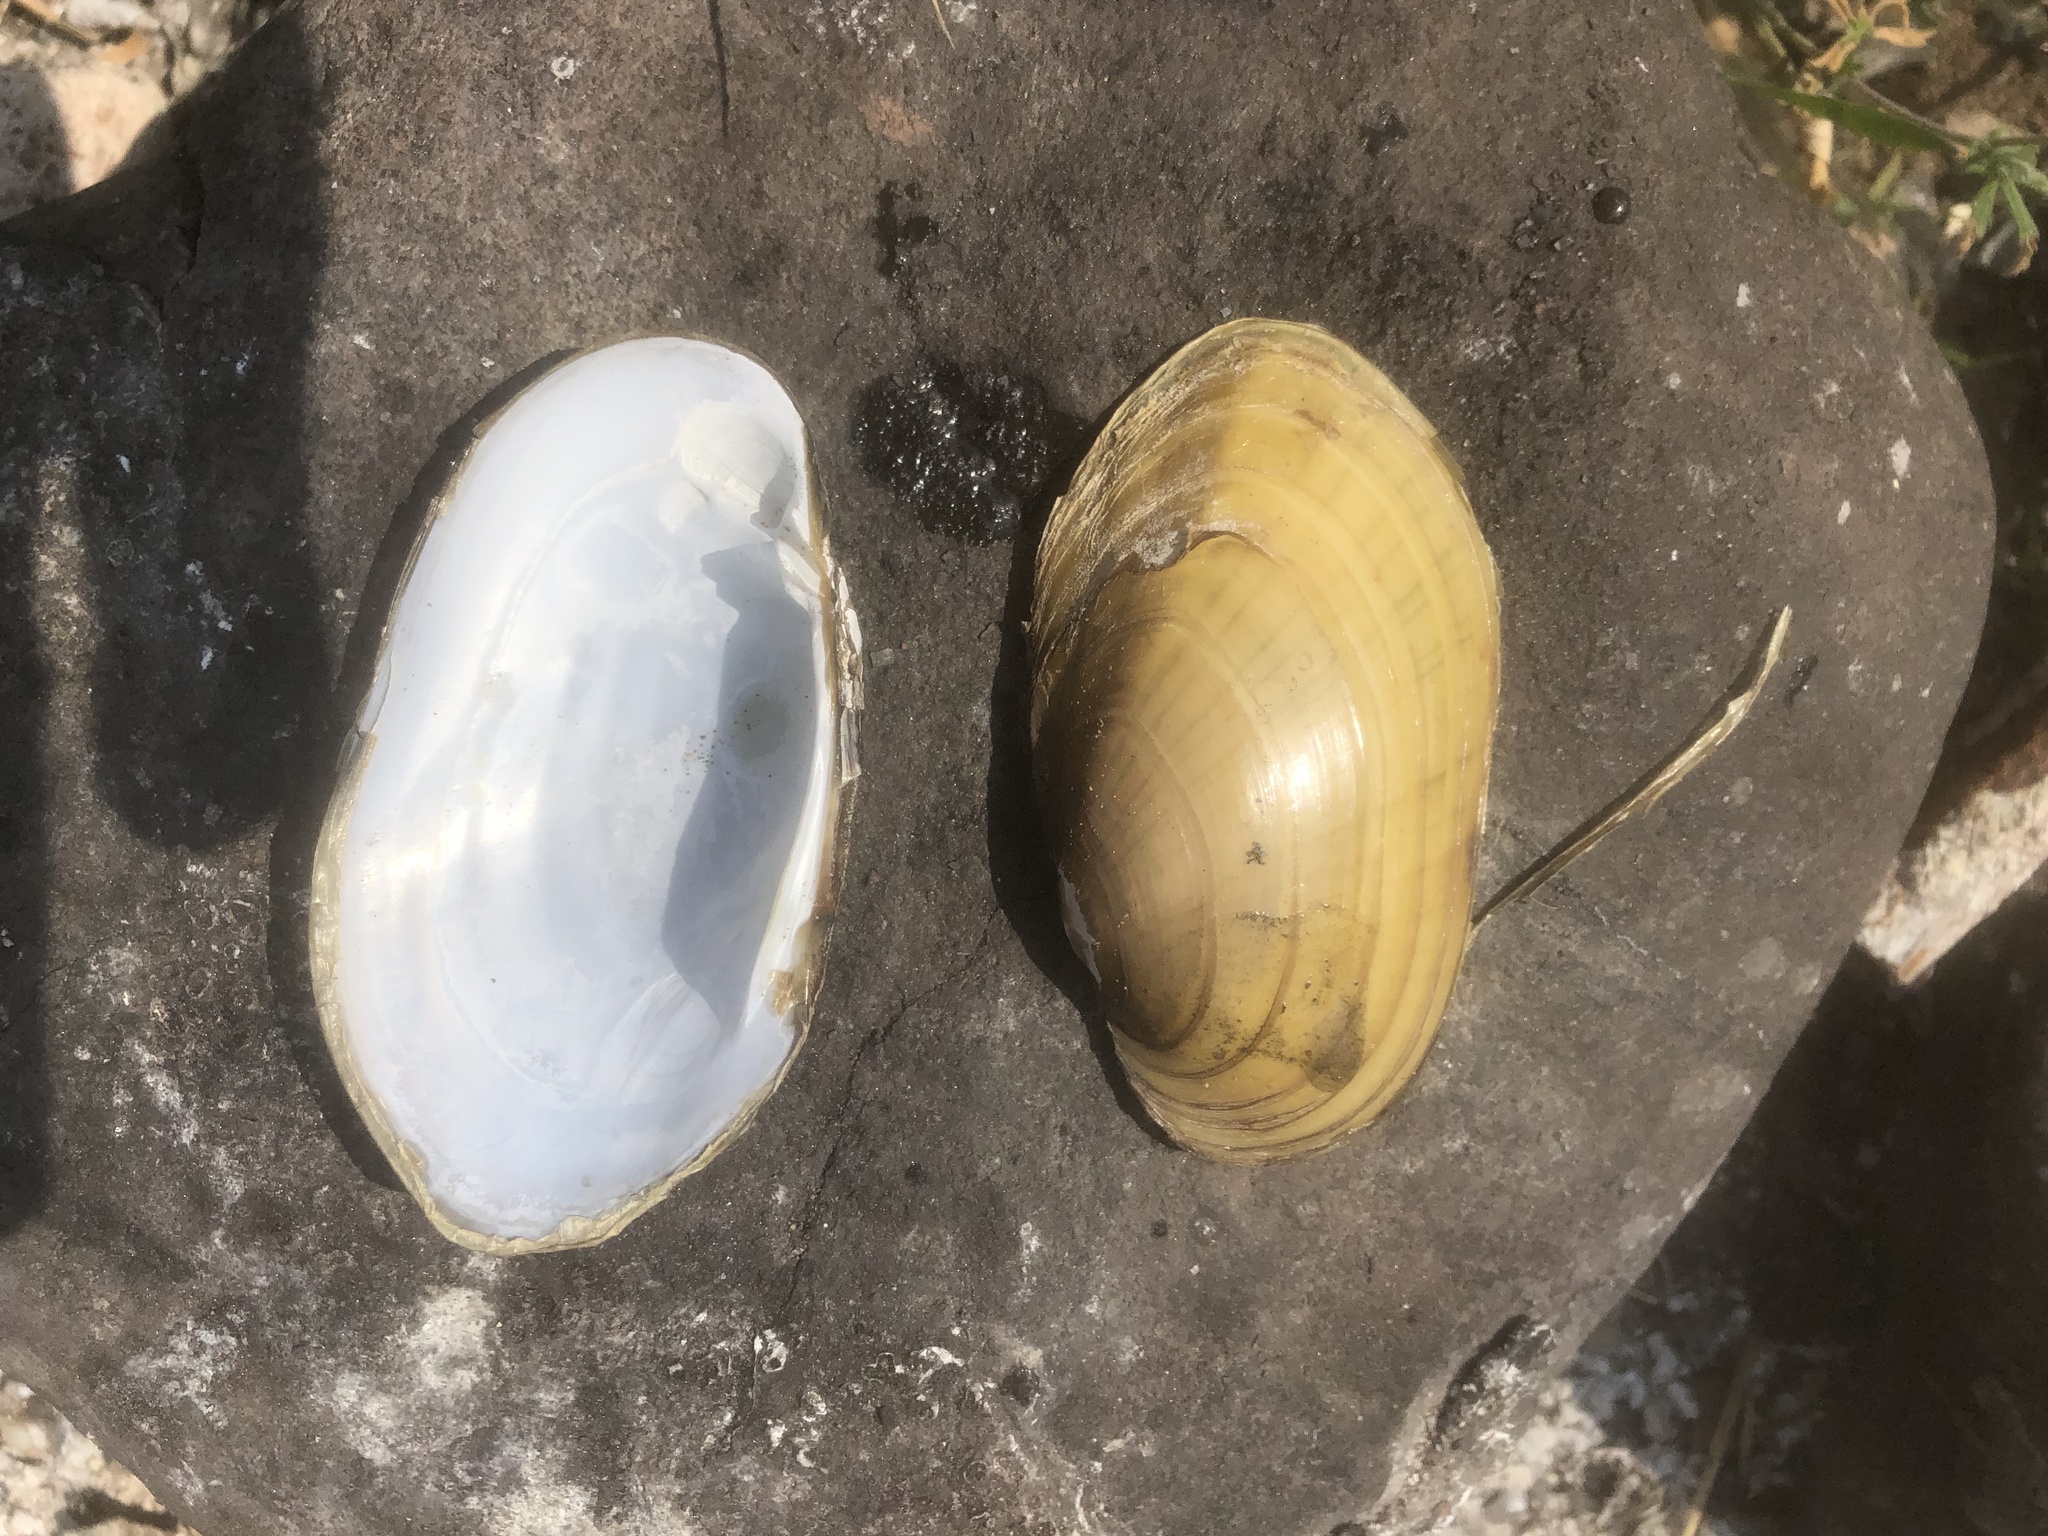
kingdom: Animalia
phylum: Mollusca
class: Bivalvia
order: Unionida
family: Unionidae
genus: Lampsilis
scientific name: Lampsilis siliquoidea
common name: Fatmucket
